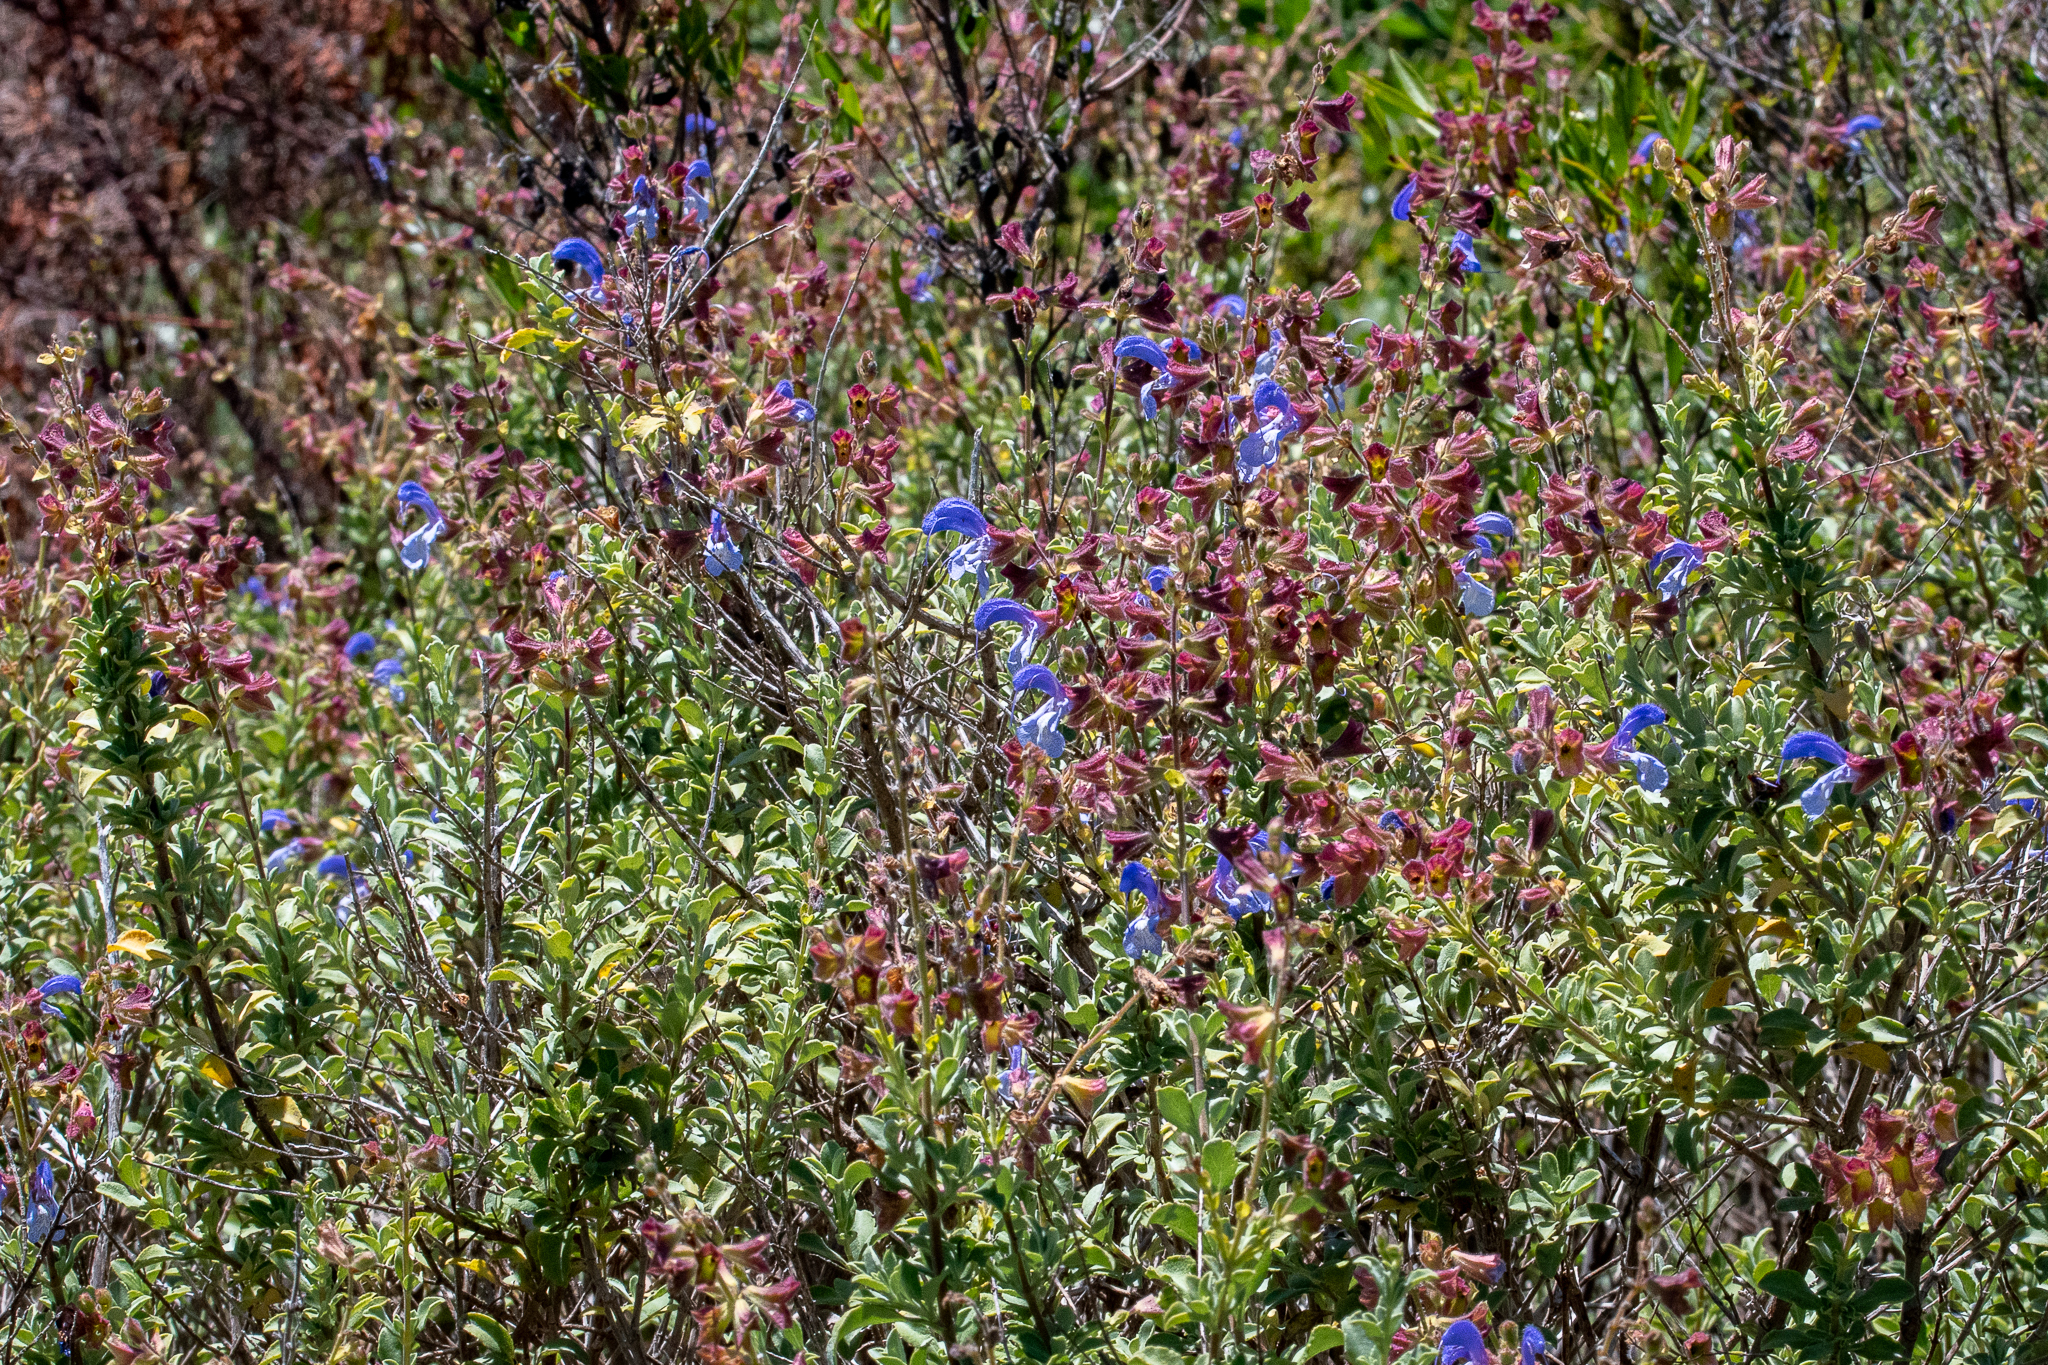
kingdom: Plantae
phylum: Tracheophyta
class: Magnoliopsida
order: Lamiales
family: Lamiaceae
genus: Salvia
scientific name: Salvia chamelaeagnea
